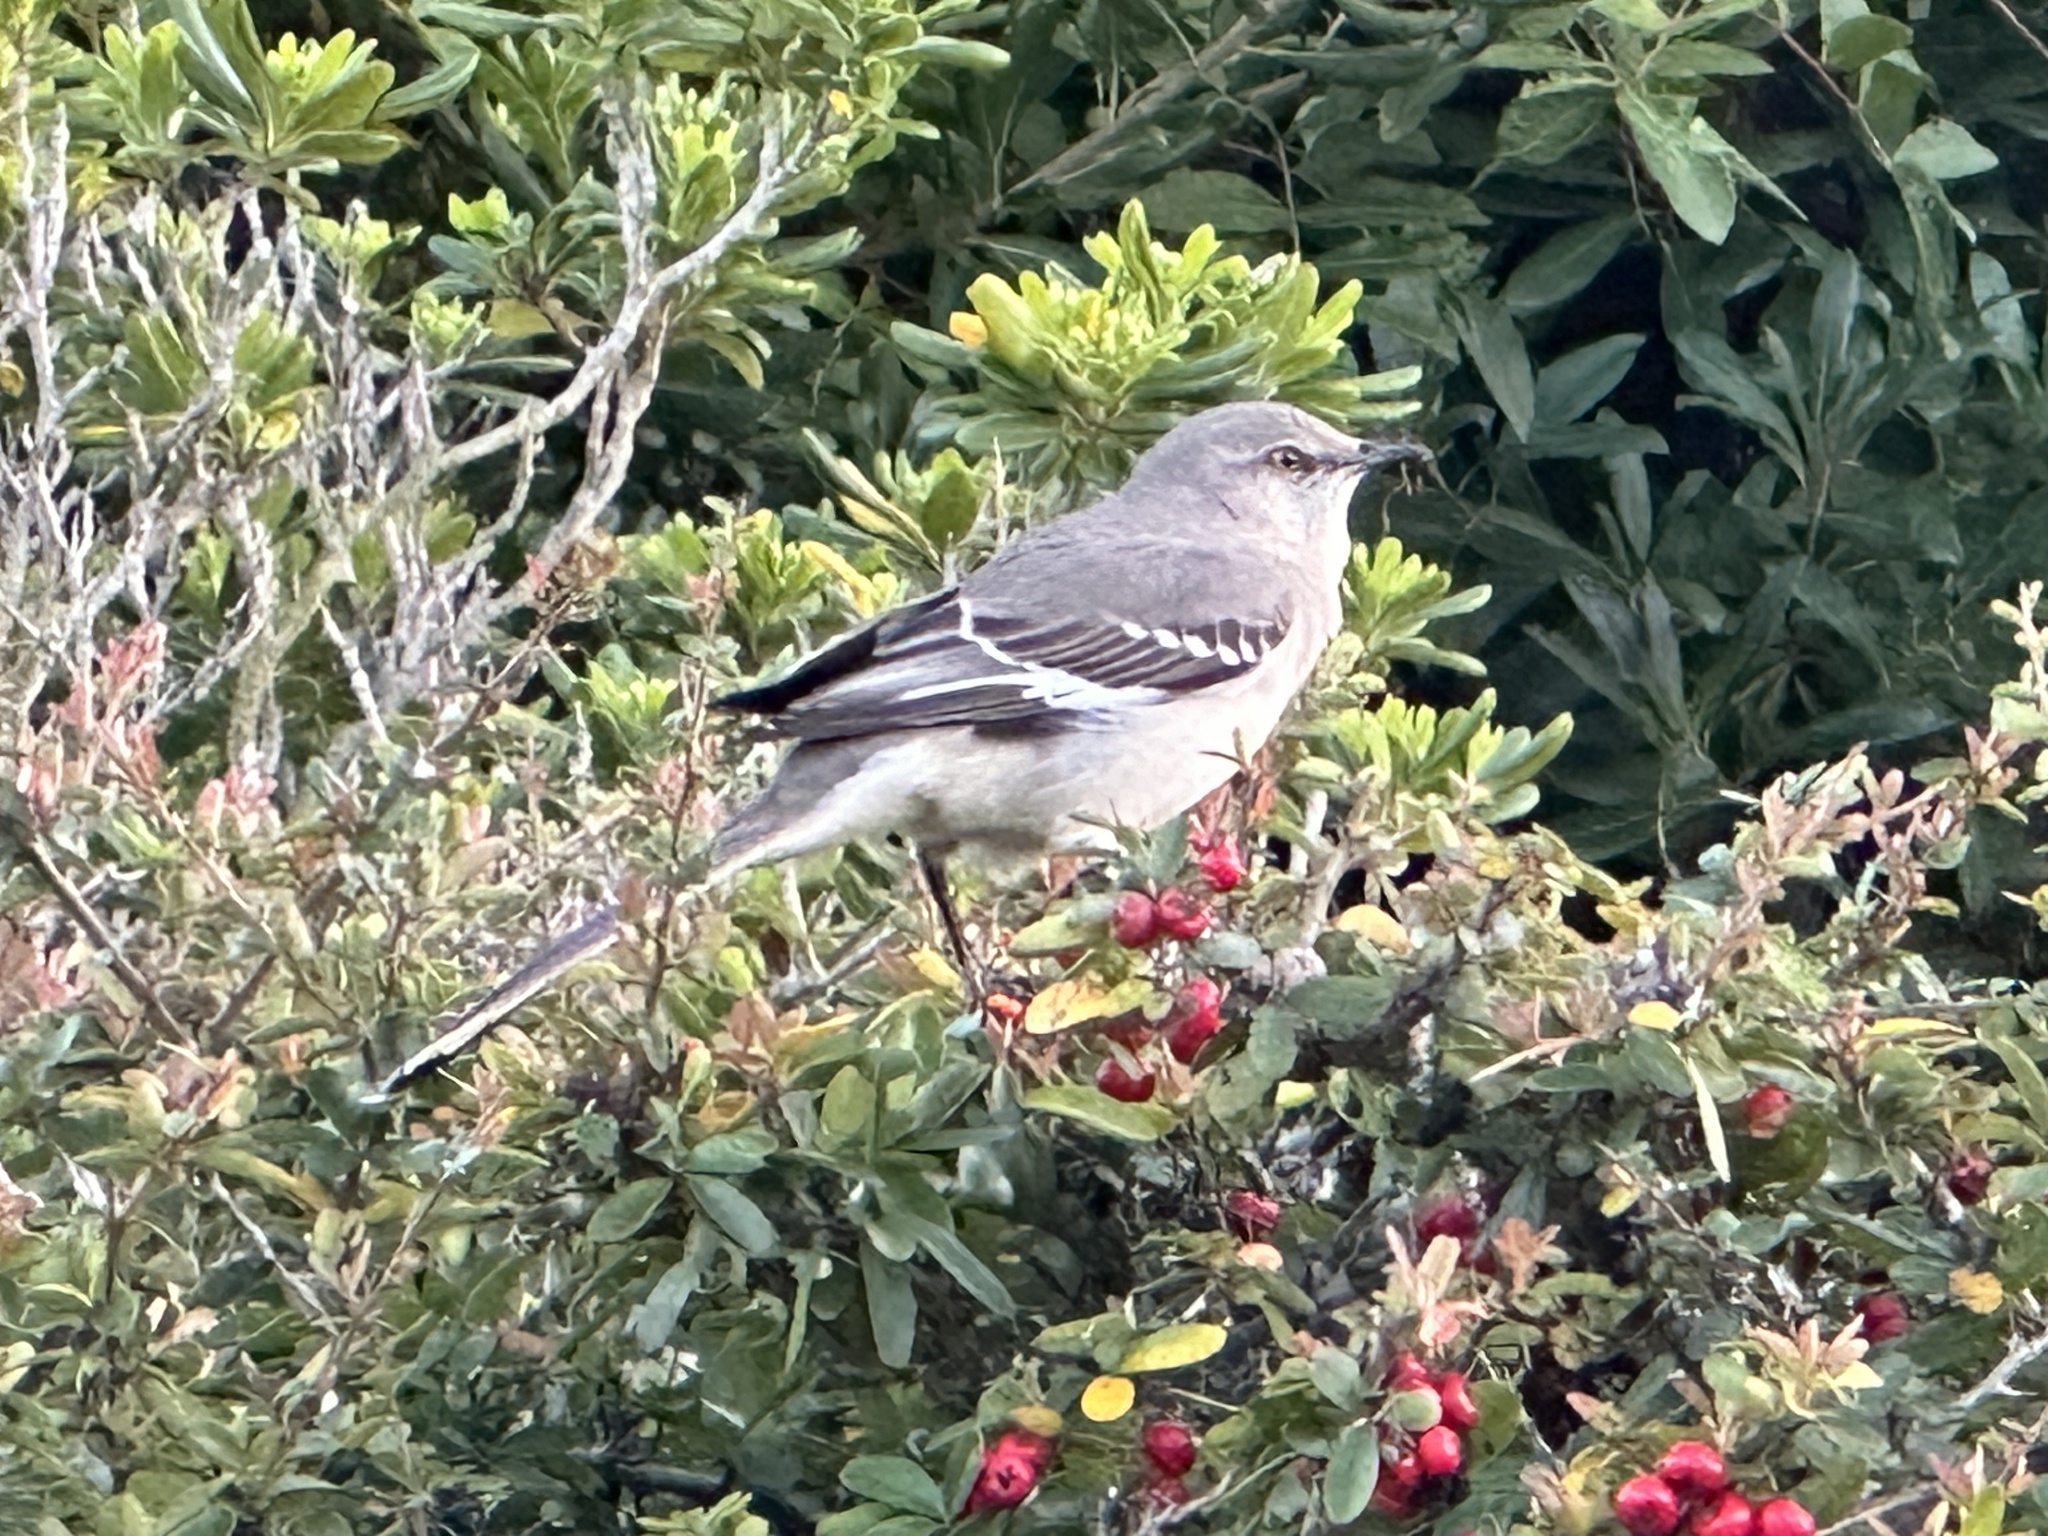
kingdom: Animalia
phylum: Chordata
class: Aves
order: Passeriformes
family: Mimidae
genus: Mimus
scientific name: Mimus polyglottos
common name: Northern mockingbird
